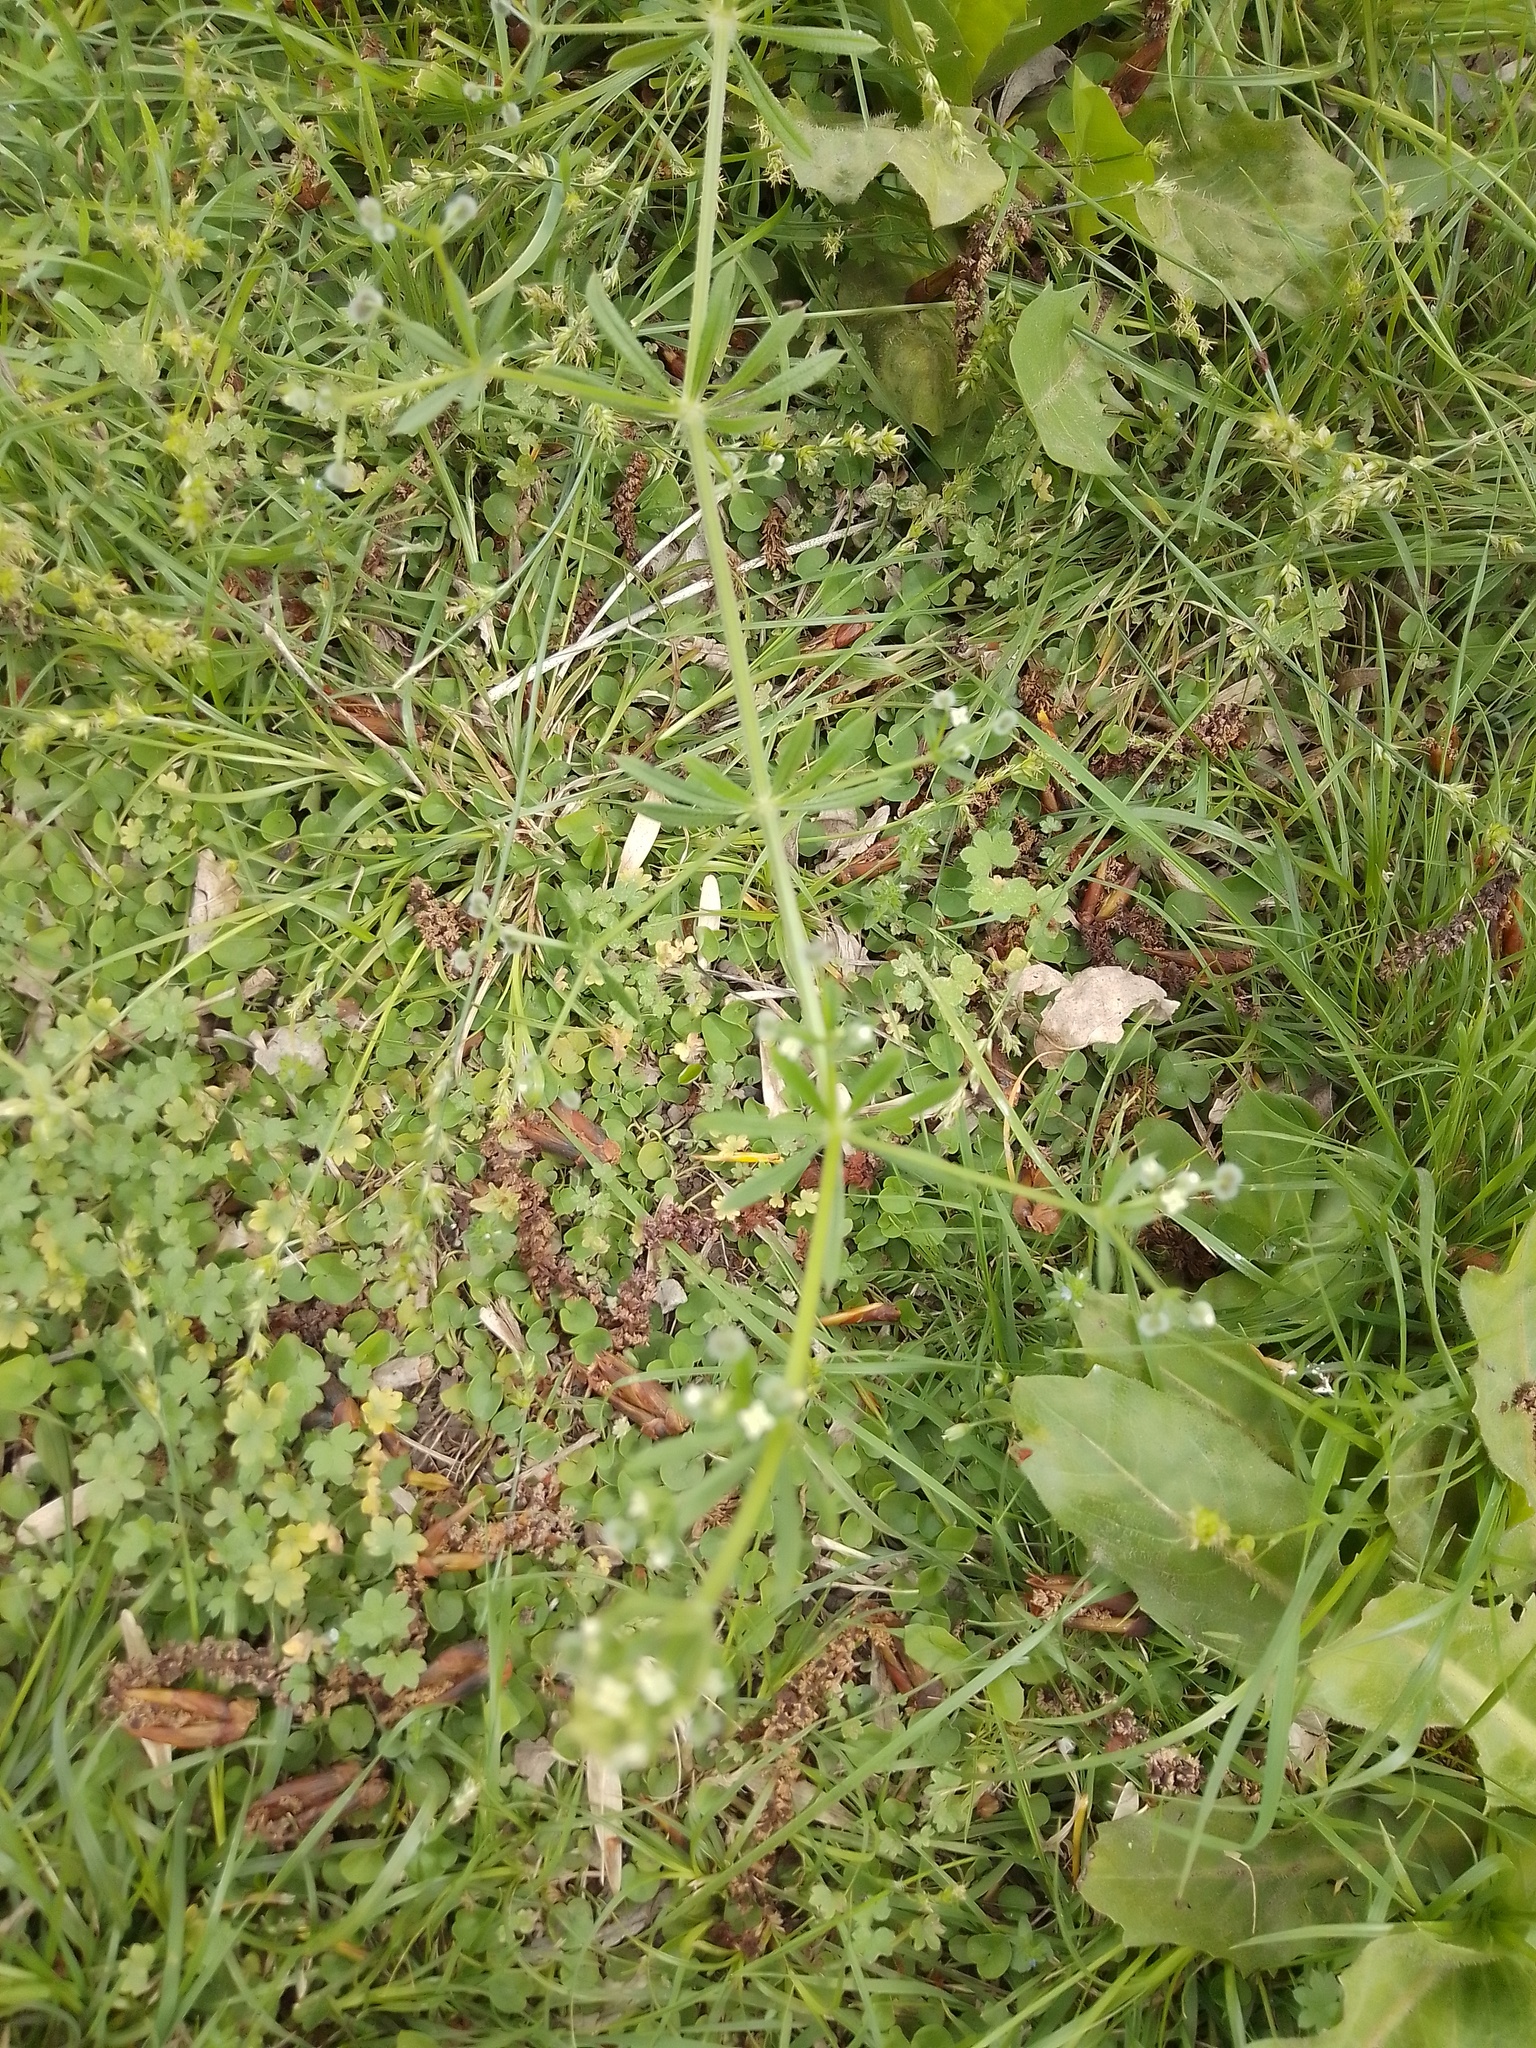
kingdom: Plantae
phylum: Tracheophyta
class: Magnoliopsida
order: Gentianales
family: Rubiaceae
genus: Galium
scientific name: Galium aparine
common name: Cleavers
